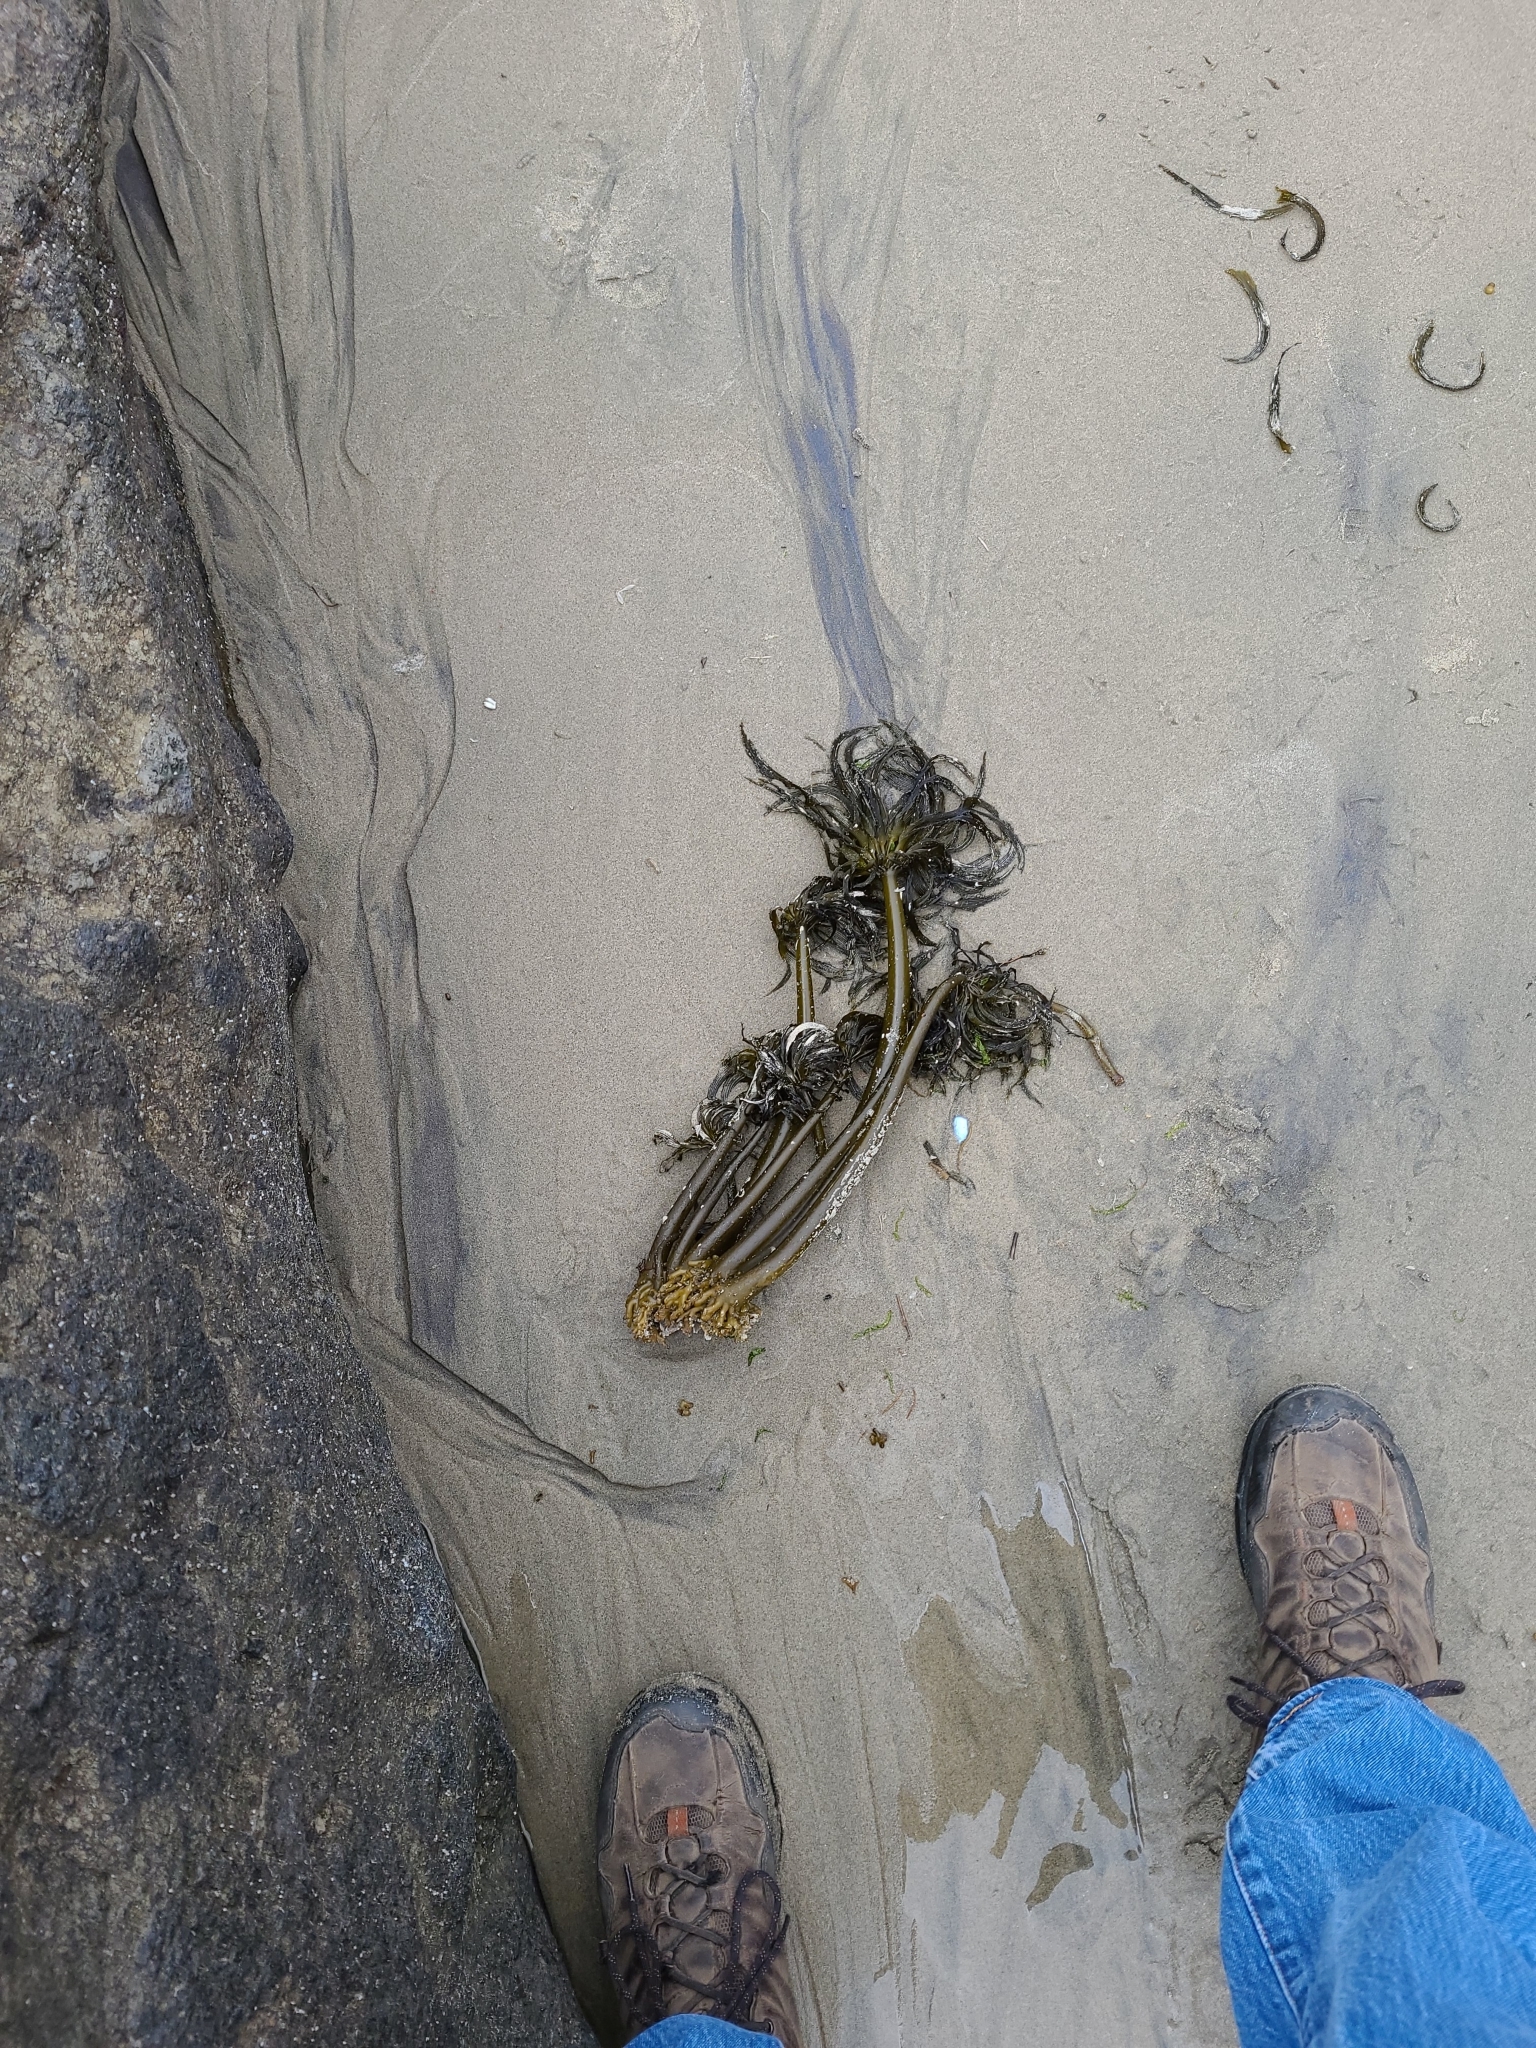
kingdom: Chromista
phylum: Ochrophyta
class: Phaeophyceae
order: Laminariales
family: Laminariaceae
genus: Postelsia
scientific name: Postelsia palmiformis
